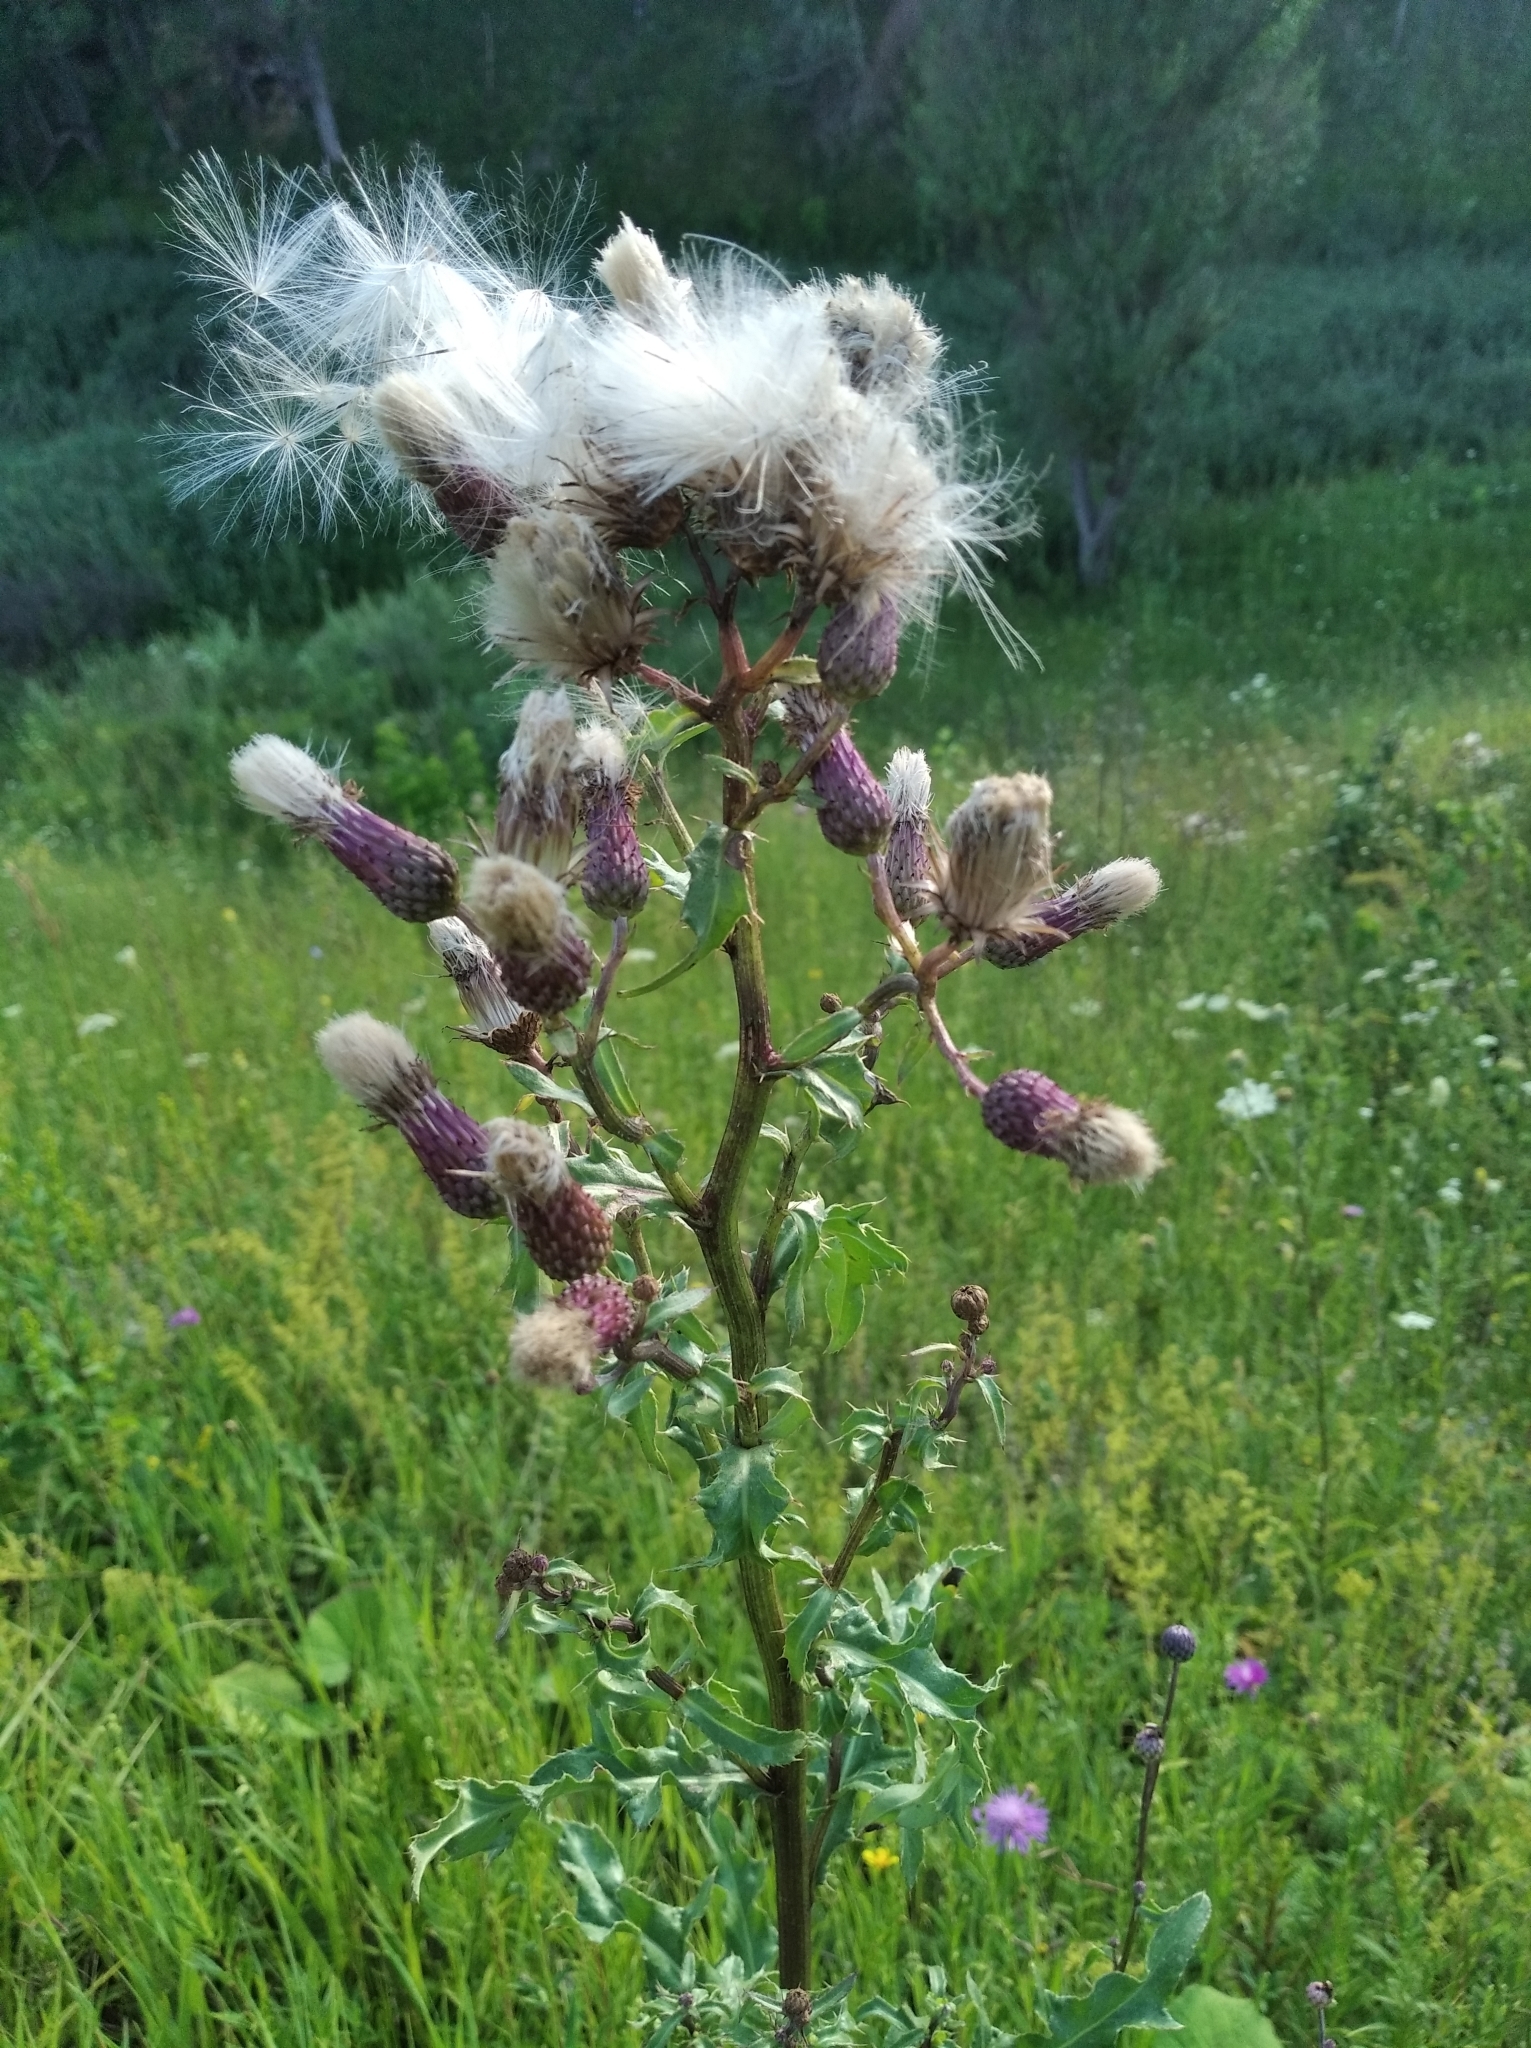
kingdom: Plantae
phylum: Tracheophyta
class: Magnoliopsida
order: Asterales
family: Asteraceae
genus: Cirsium
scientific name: Cirsium arvense
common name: Creeping thistle
